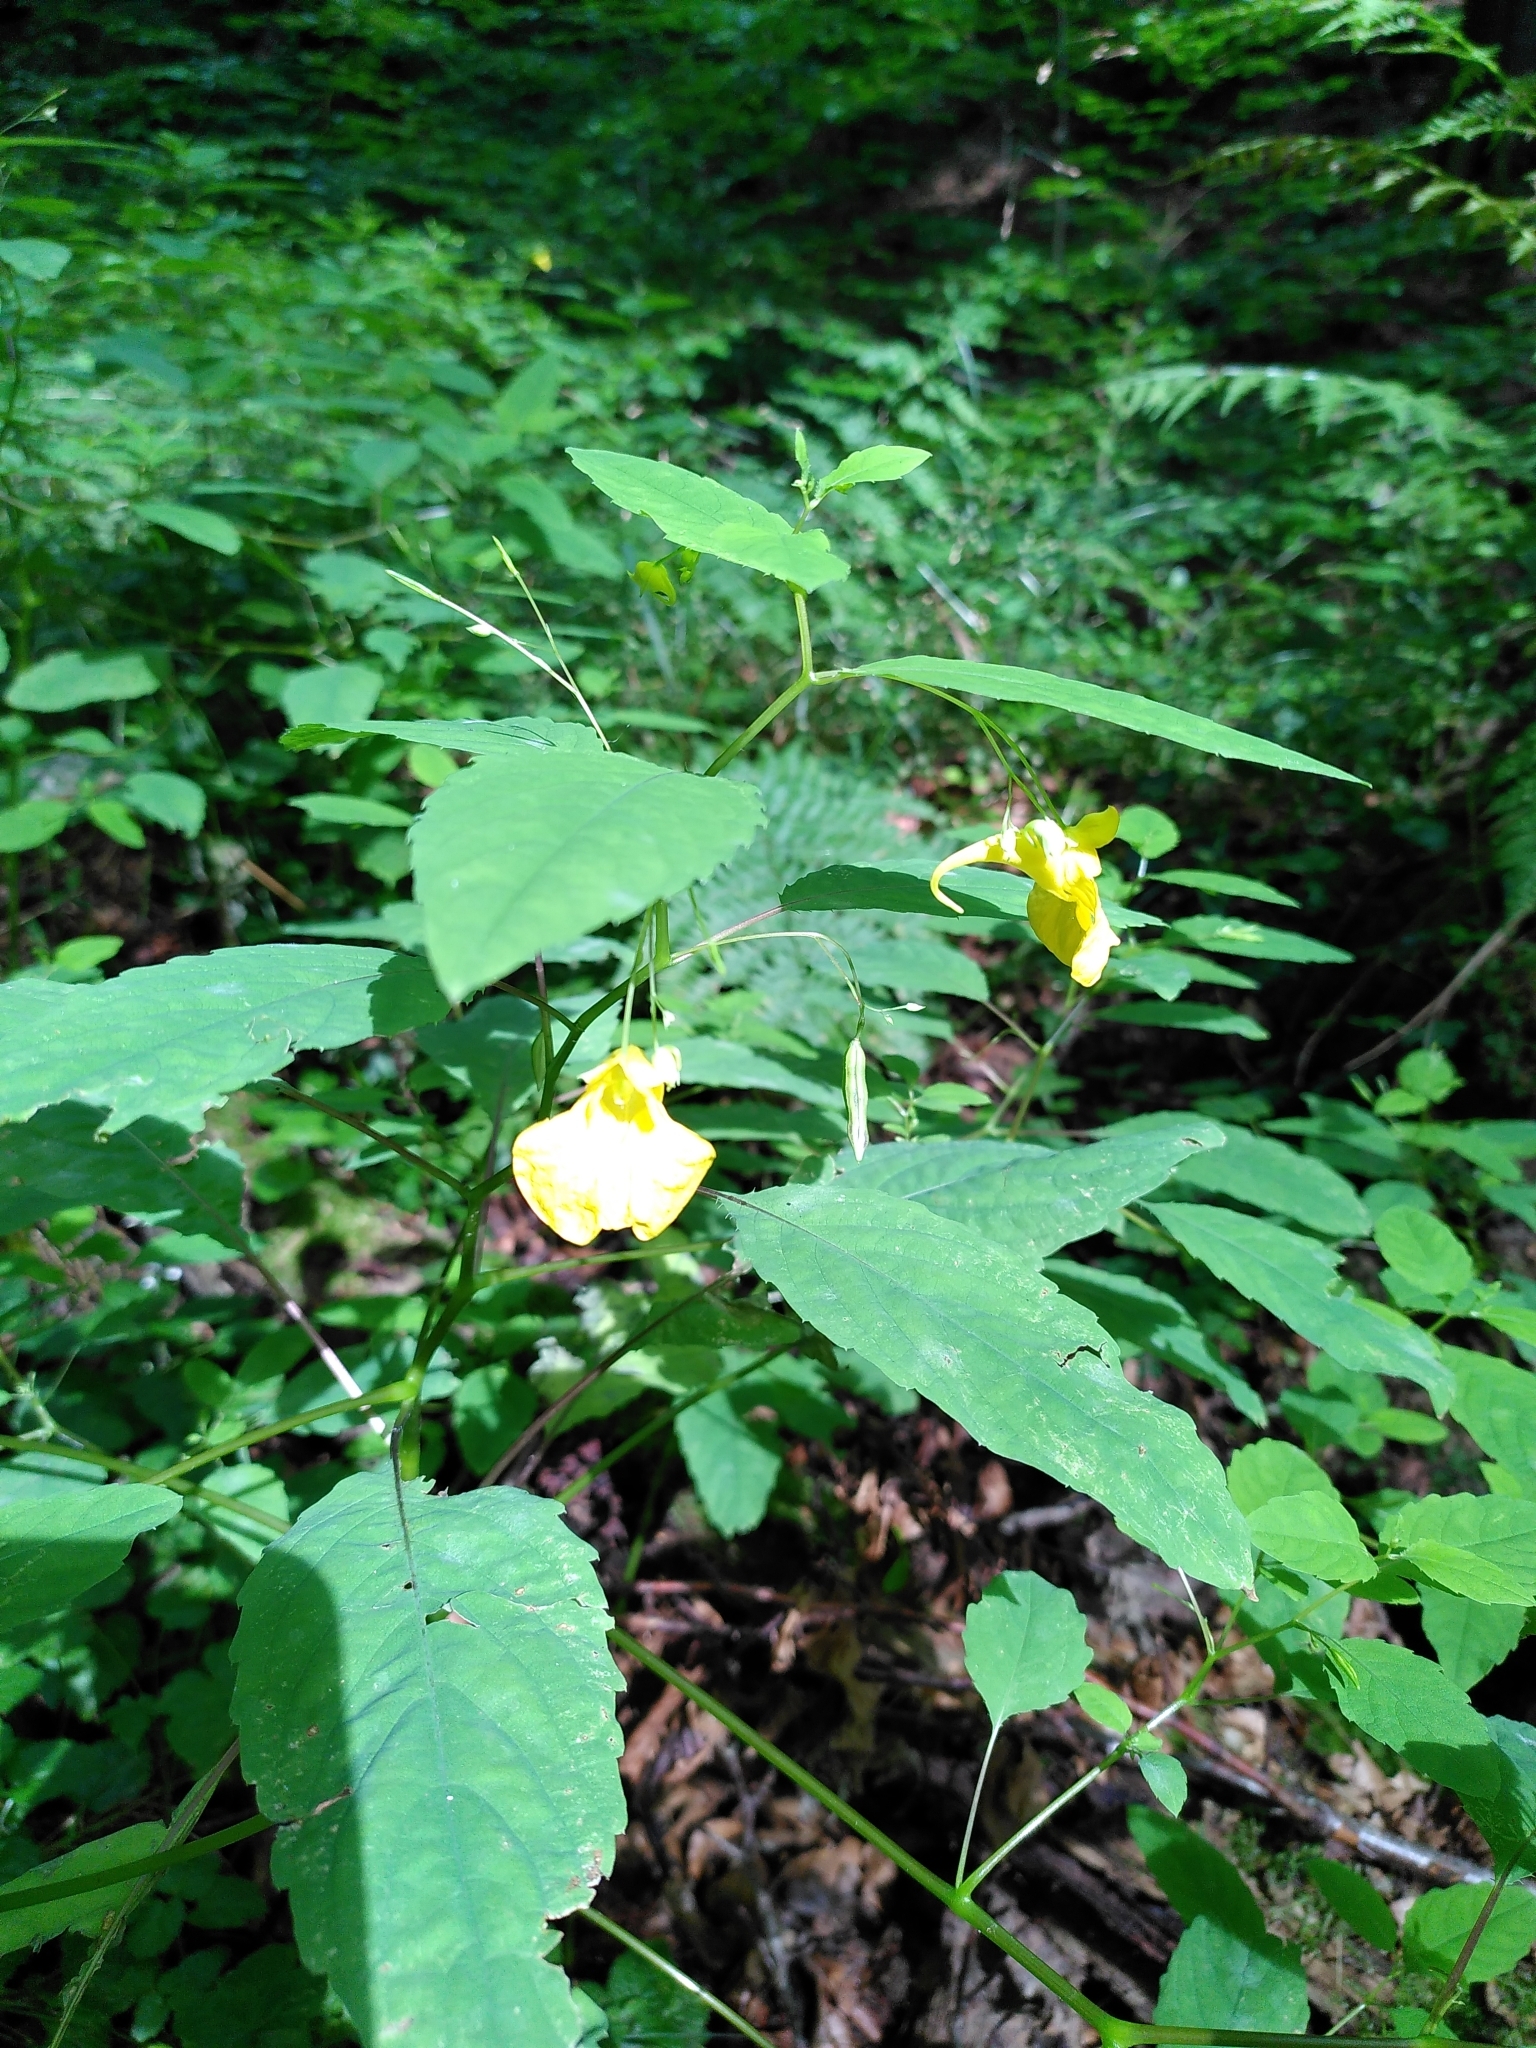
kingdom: Plantae
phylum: Tracheophyta
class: Magnoliopsida
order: Ericales
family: Balsaminaceae
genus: Impatiens
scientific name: Impatiens noli-tangere
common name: Touch-me-not balsam
